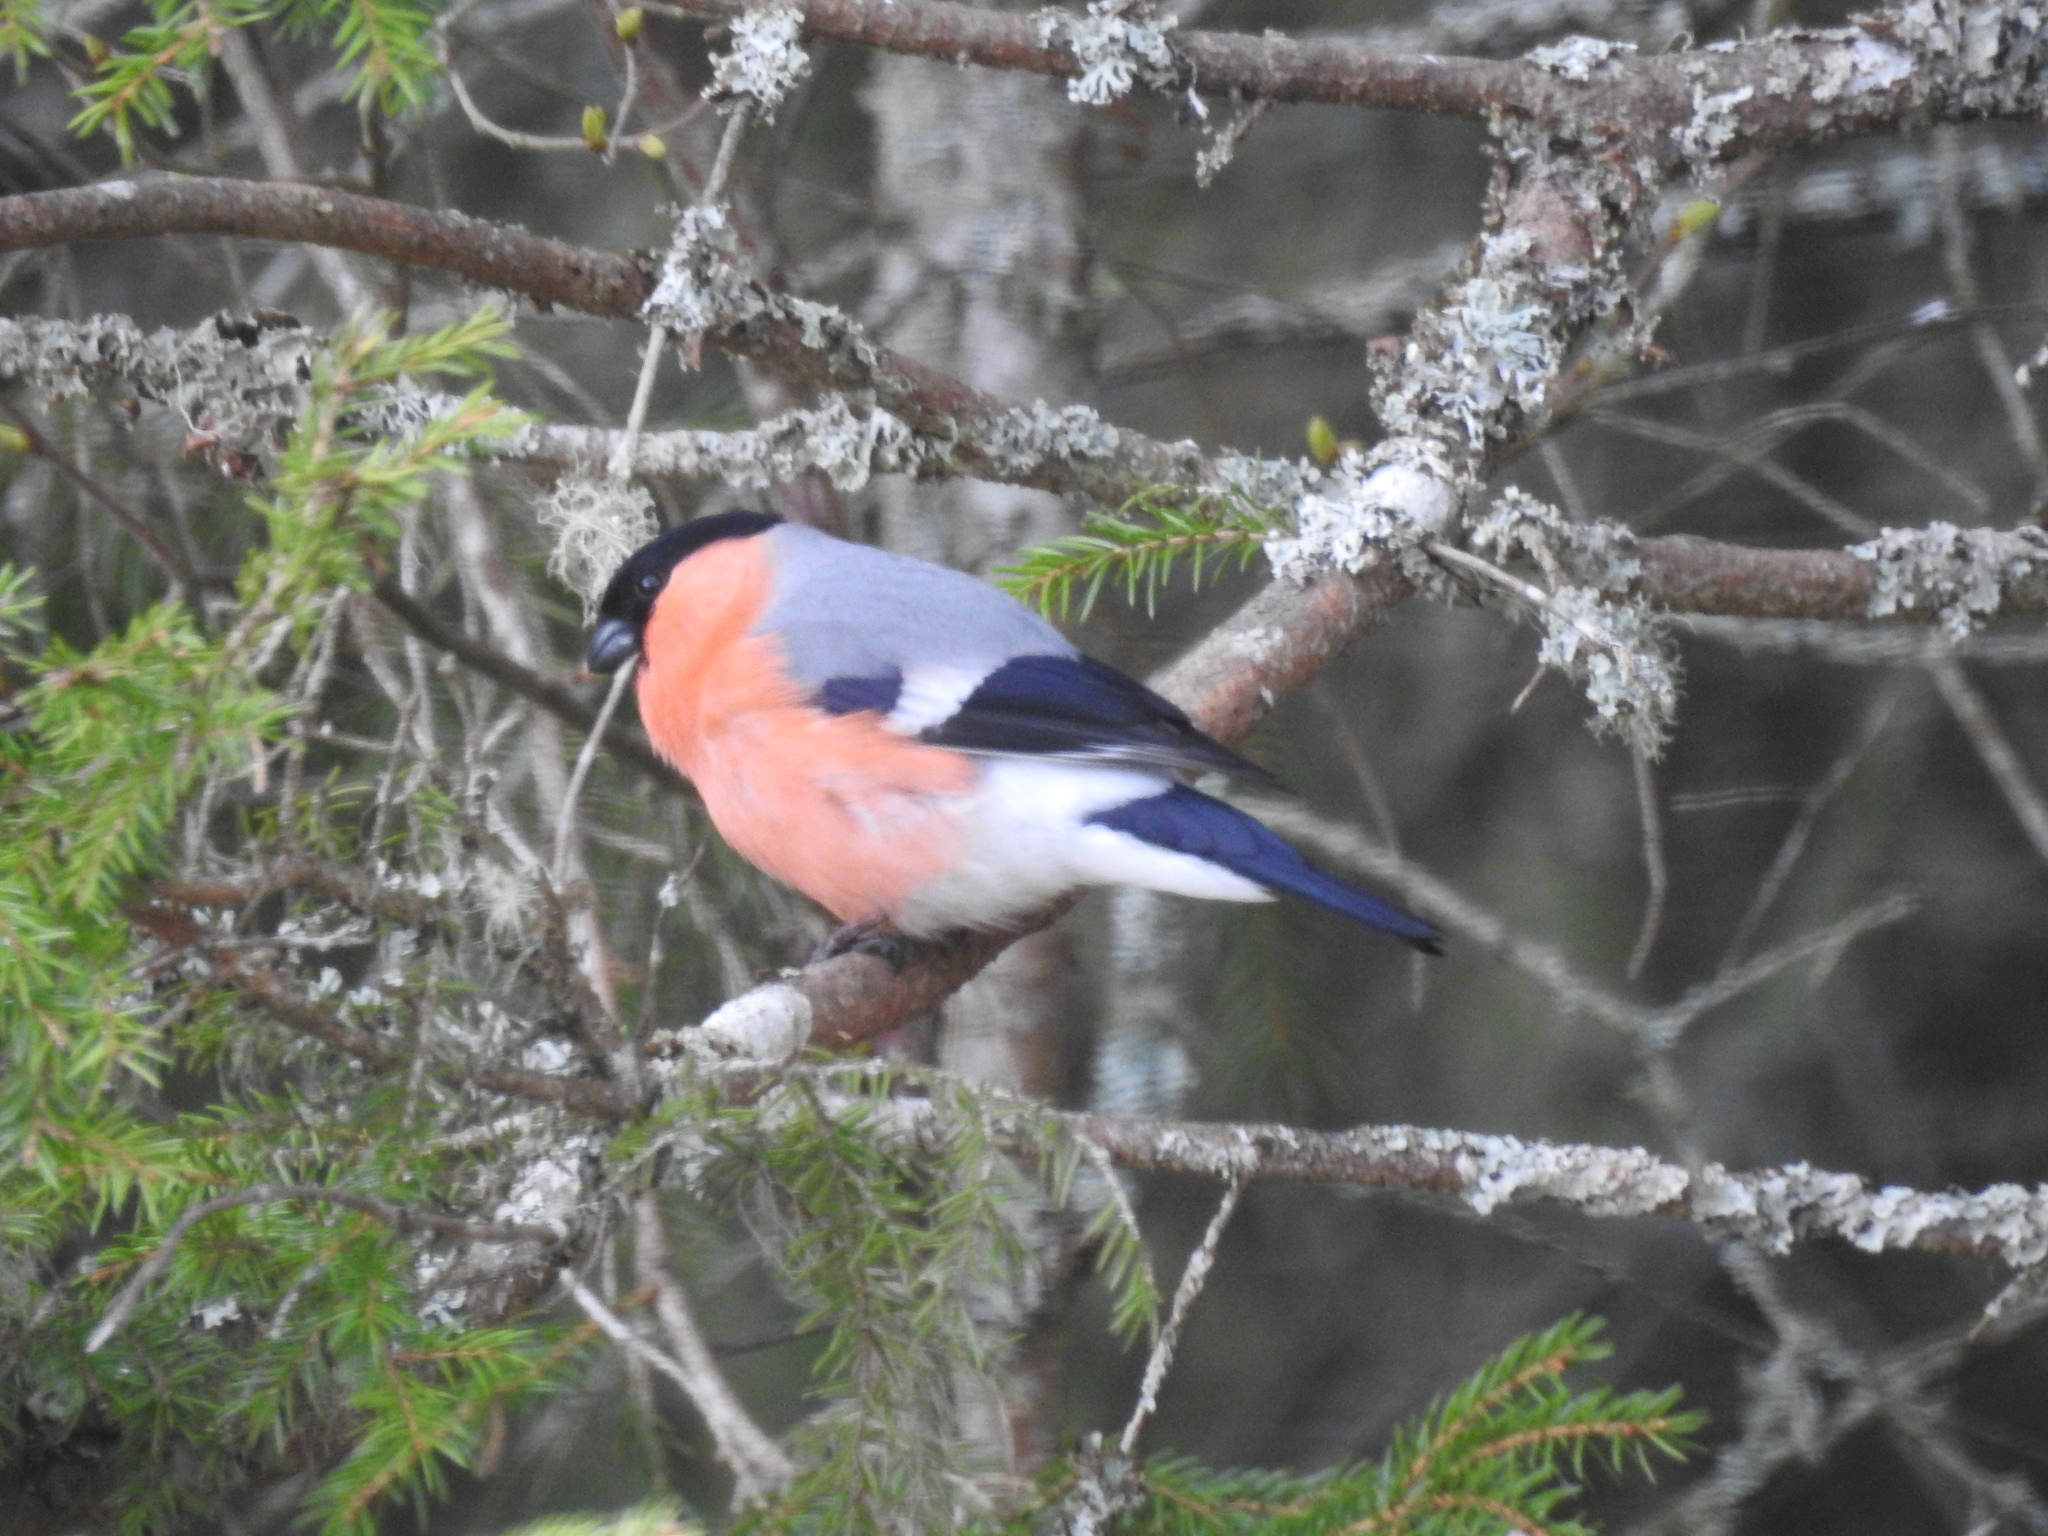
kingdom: Animalia
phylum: Chordata
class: Aves
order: Passeriformes
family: Fringillidae
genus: Pyrrhula
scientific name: Pyrrhula pyrrhula
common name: Eurasian bullfinch
